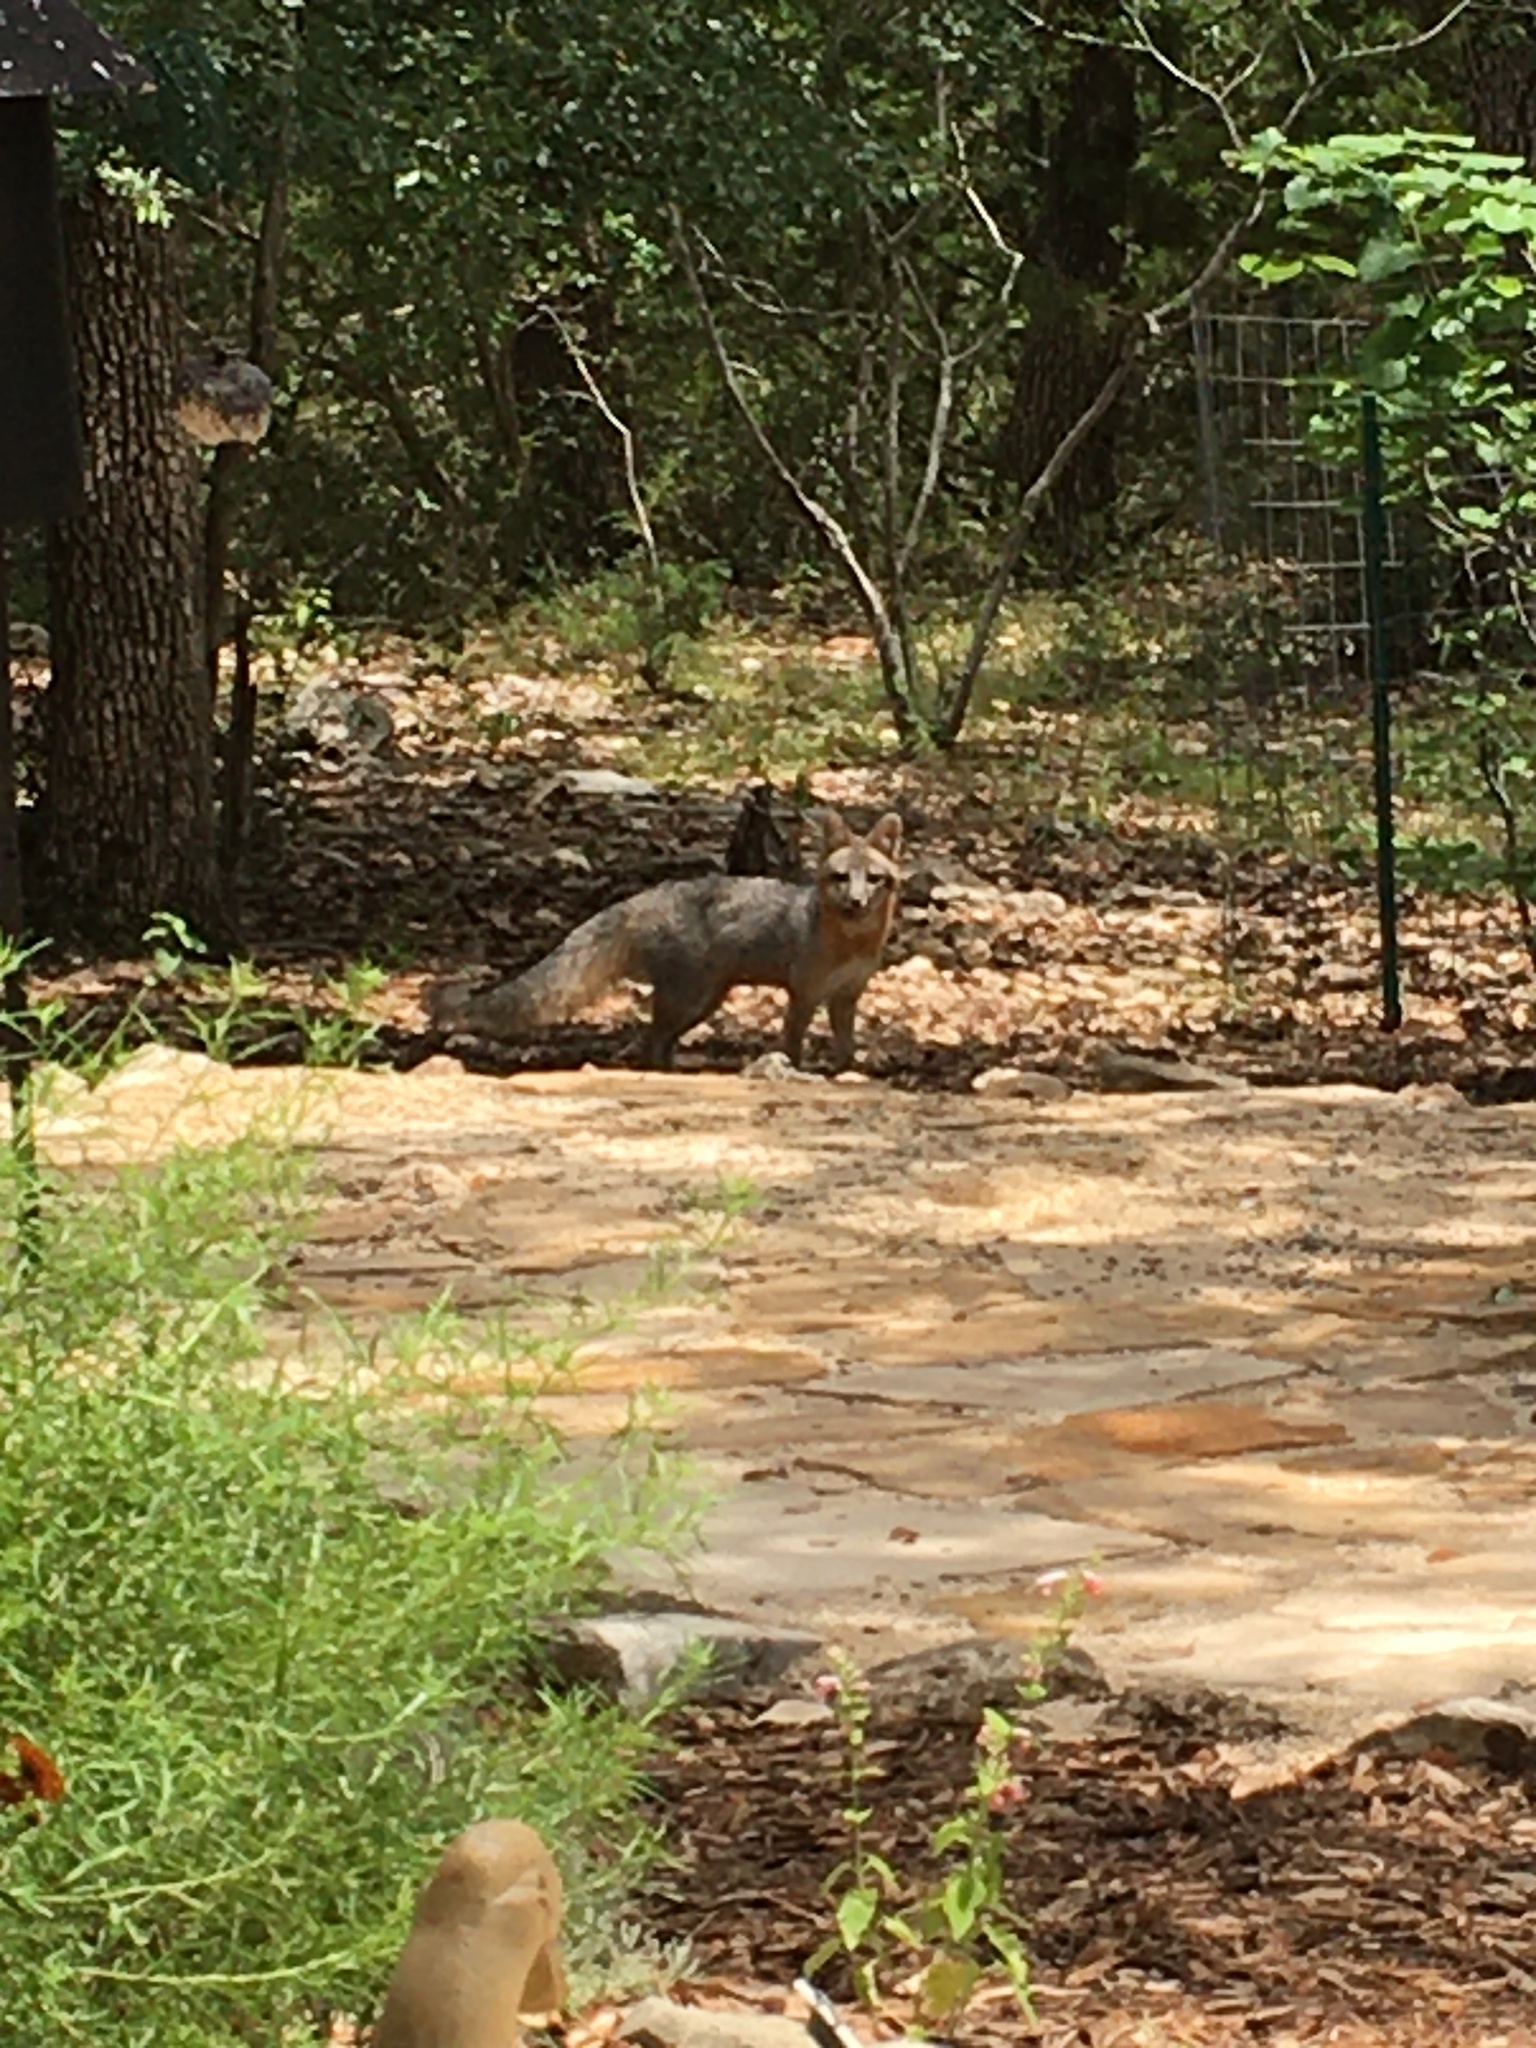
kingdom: Animalia
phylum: Chordata
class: Mammalia
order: Carnivora
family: Canidae
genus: Urocyon
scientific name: Urocyon cinereoargenteus
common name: Gray fox
